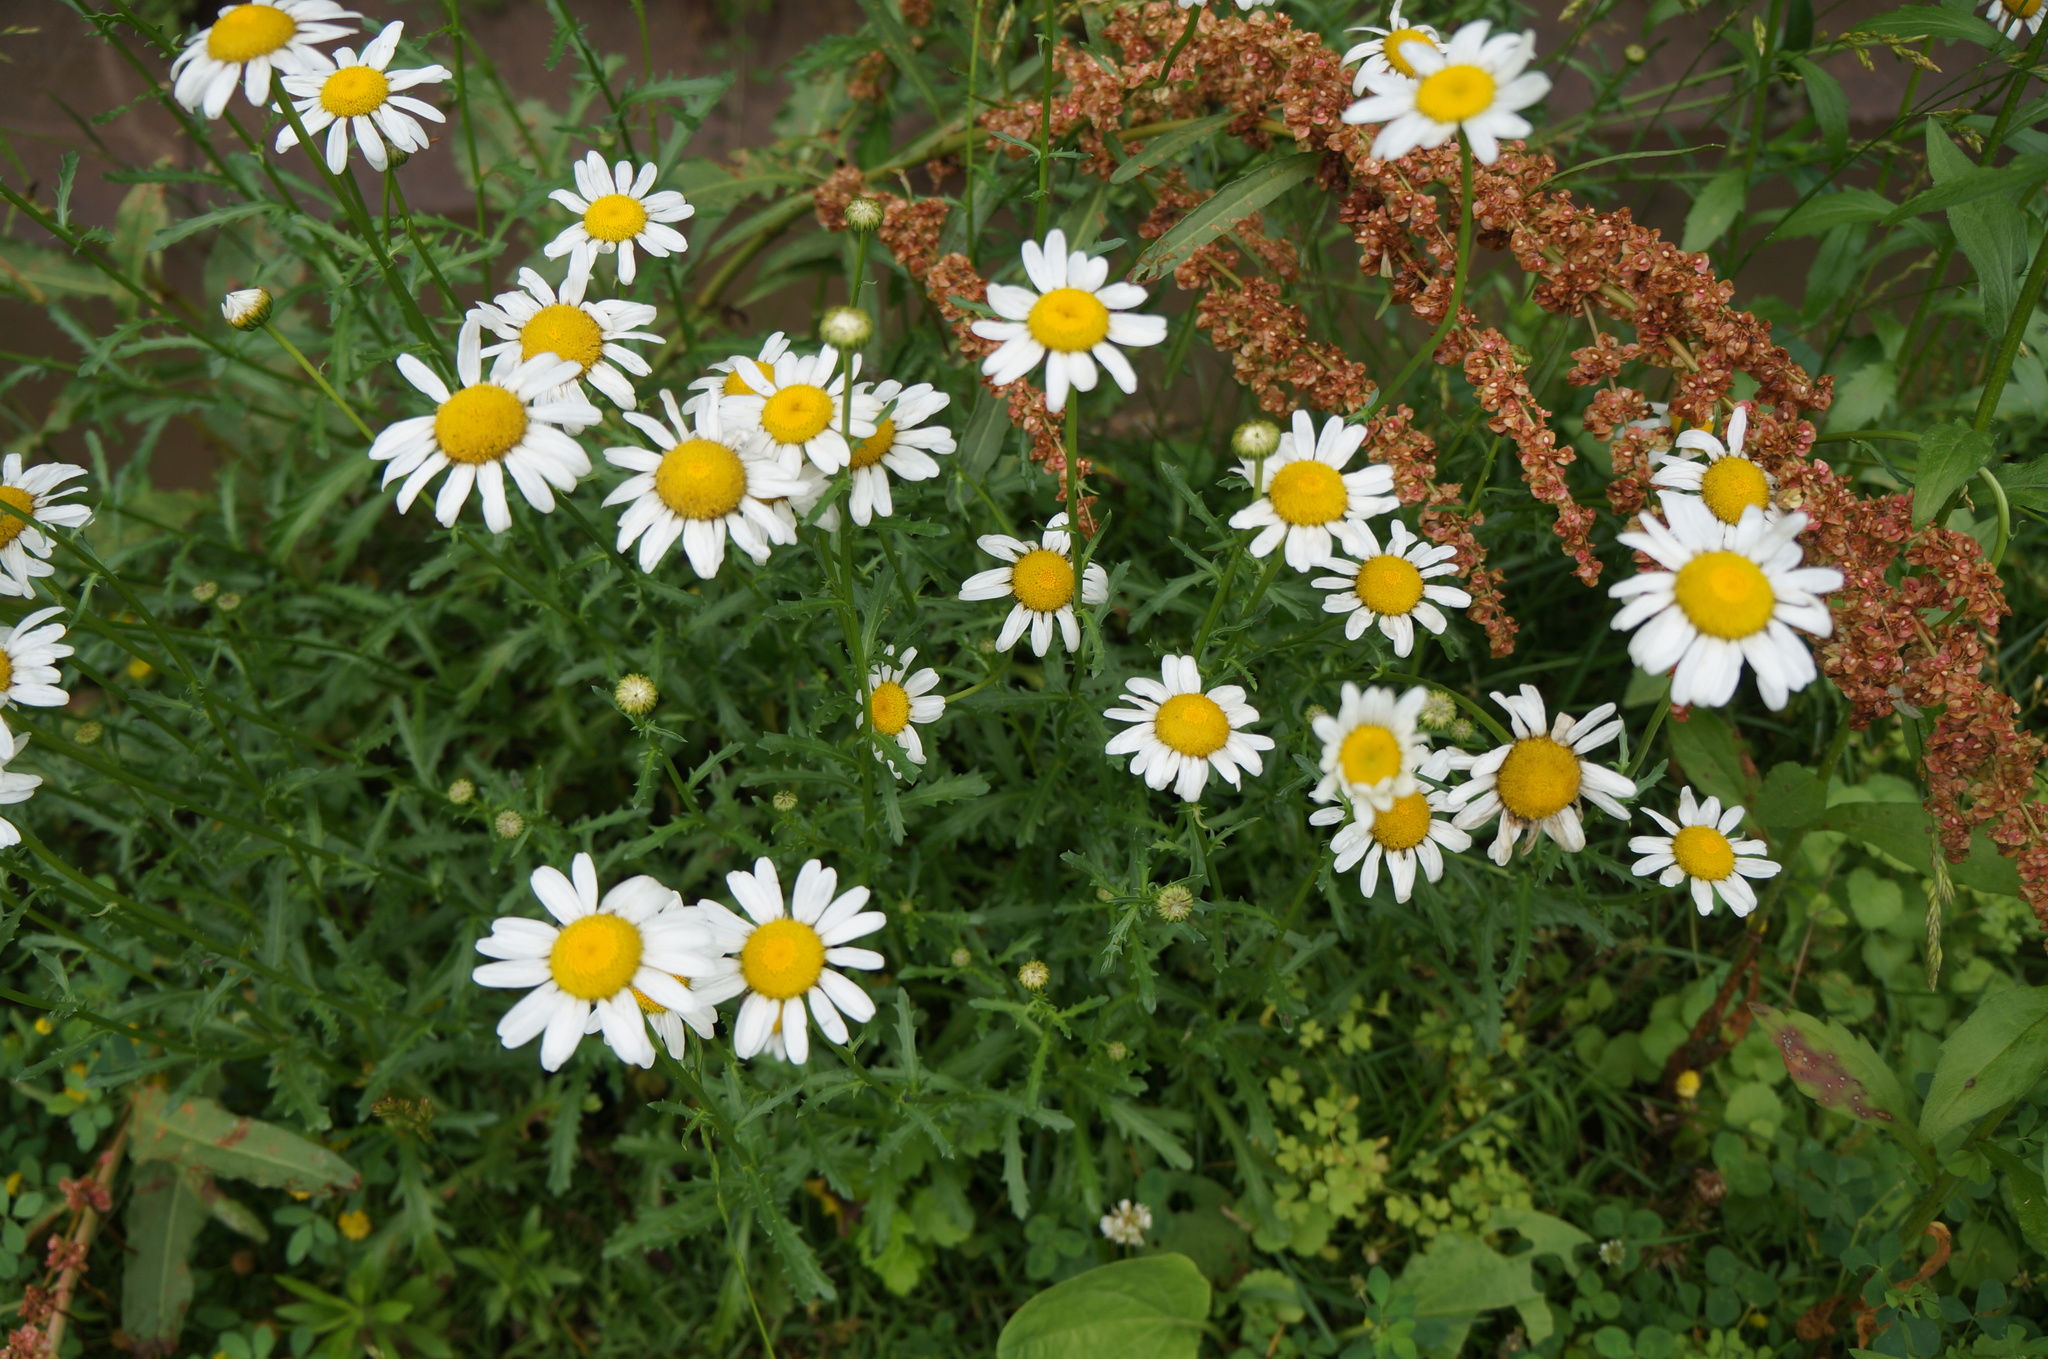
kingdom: Plantae
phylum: Tracheophyta
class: Magnoliopsida
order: Asterales
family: Asteraceae
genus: Leucanthemum
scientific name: Leucanthemum vulgare
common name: Oxeye daisy
